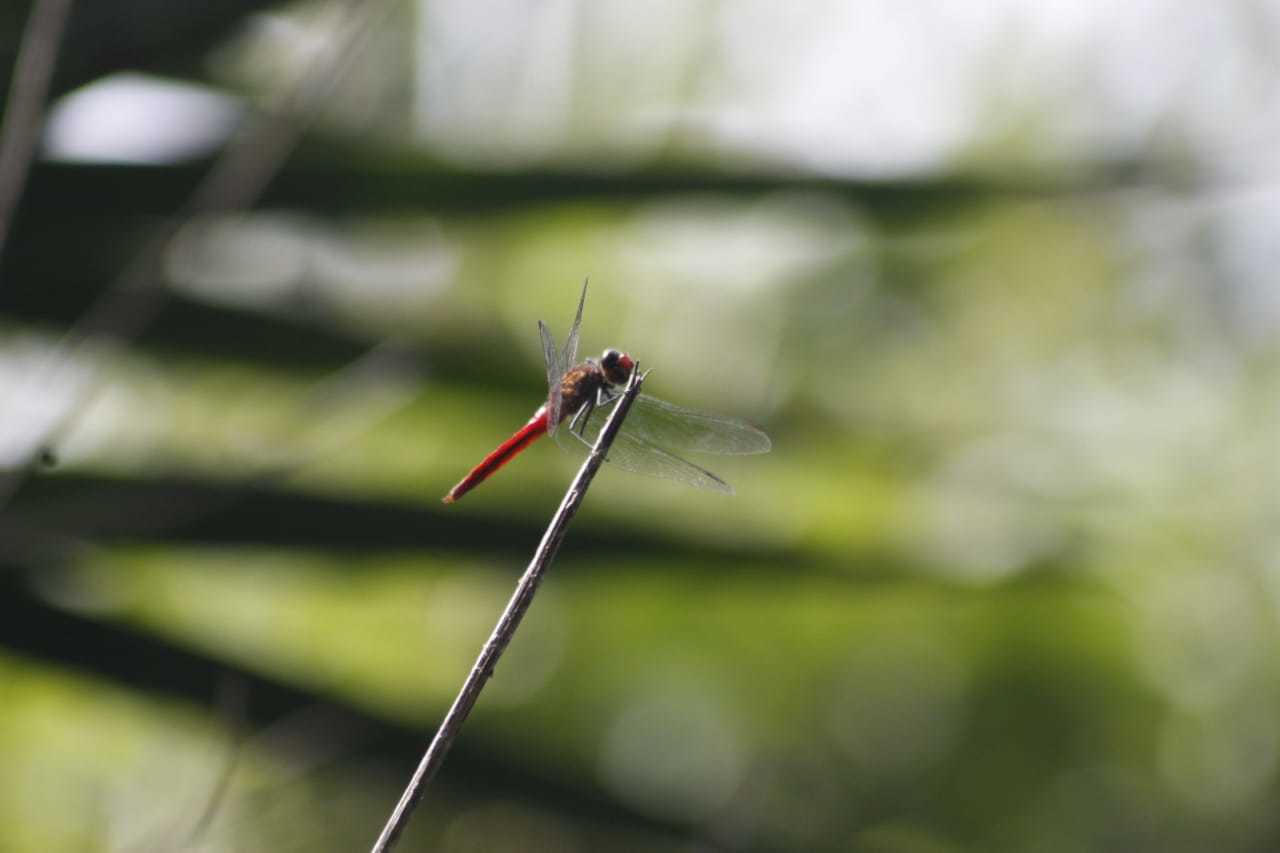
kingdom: Animalia
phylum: Arthropoda
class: Insecta
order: Odonata
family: Libellulidae
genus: Brachymesia
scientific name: Brachymesia furcata
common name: Red-taled pennant
